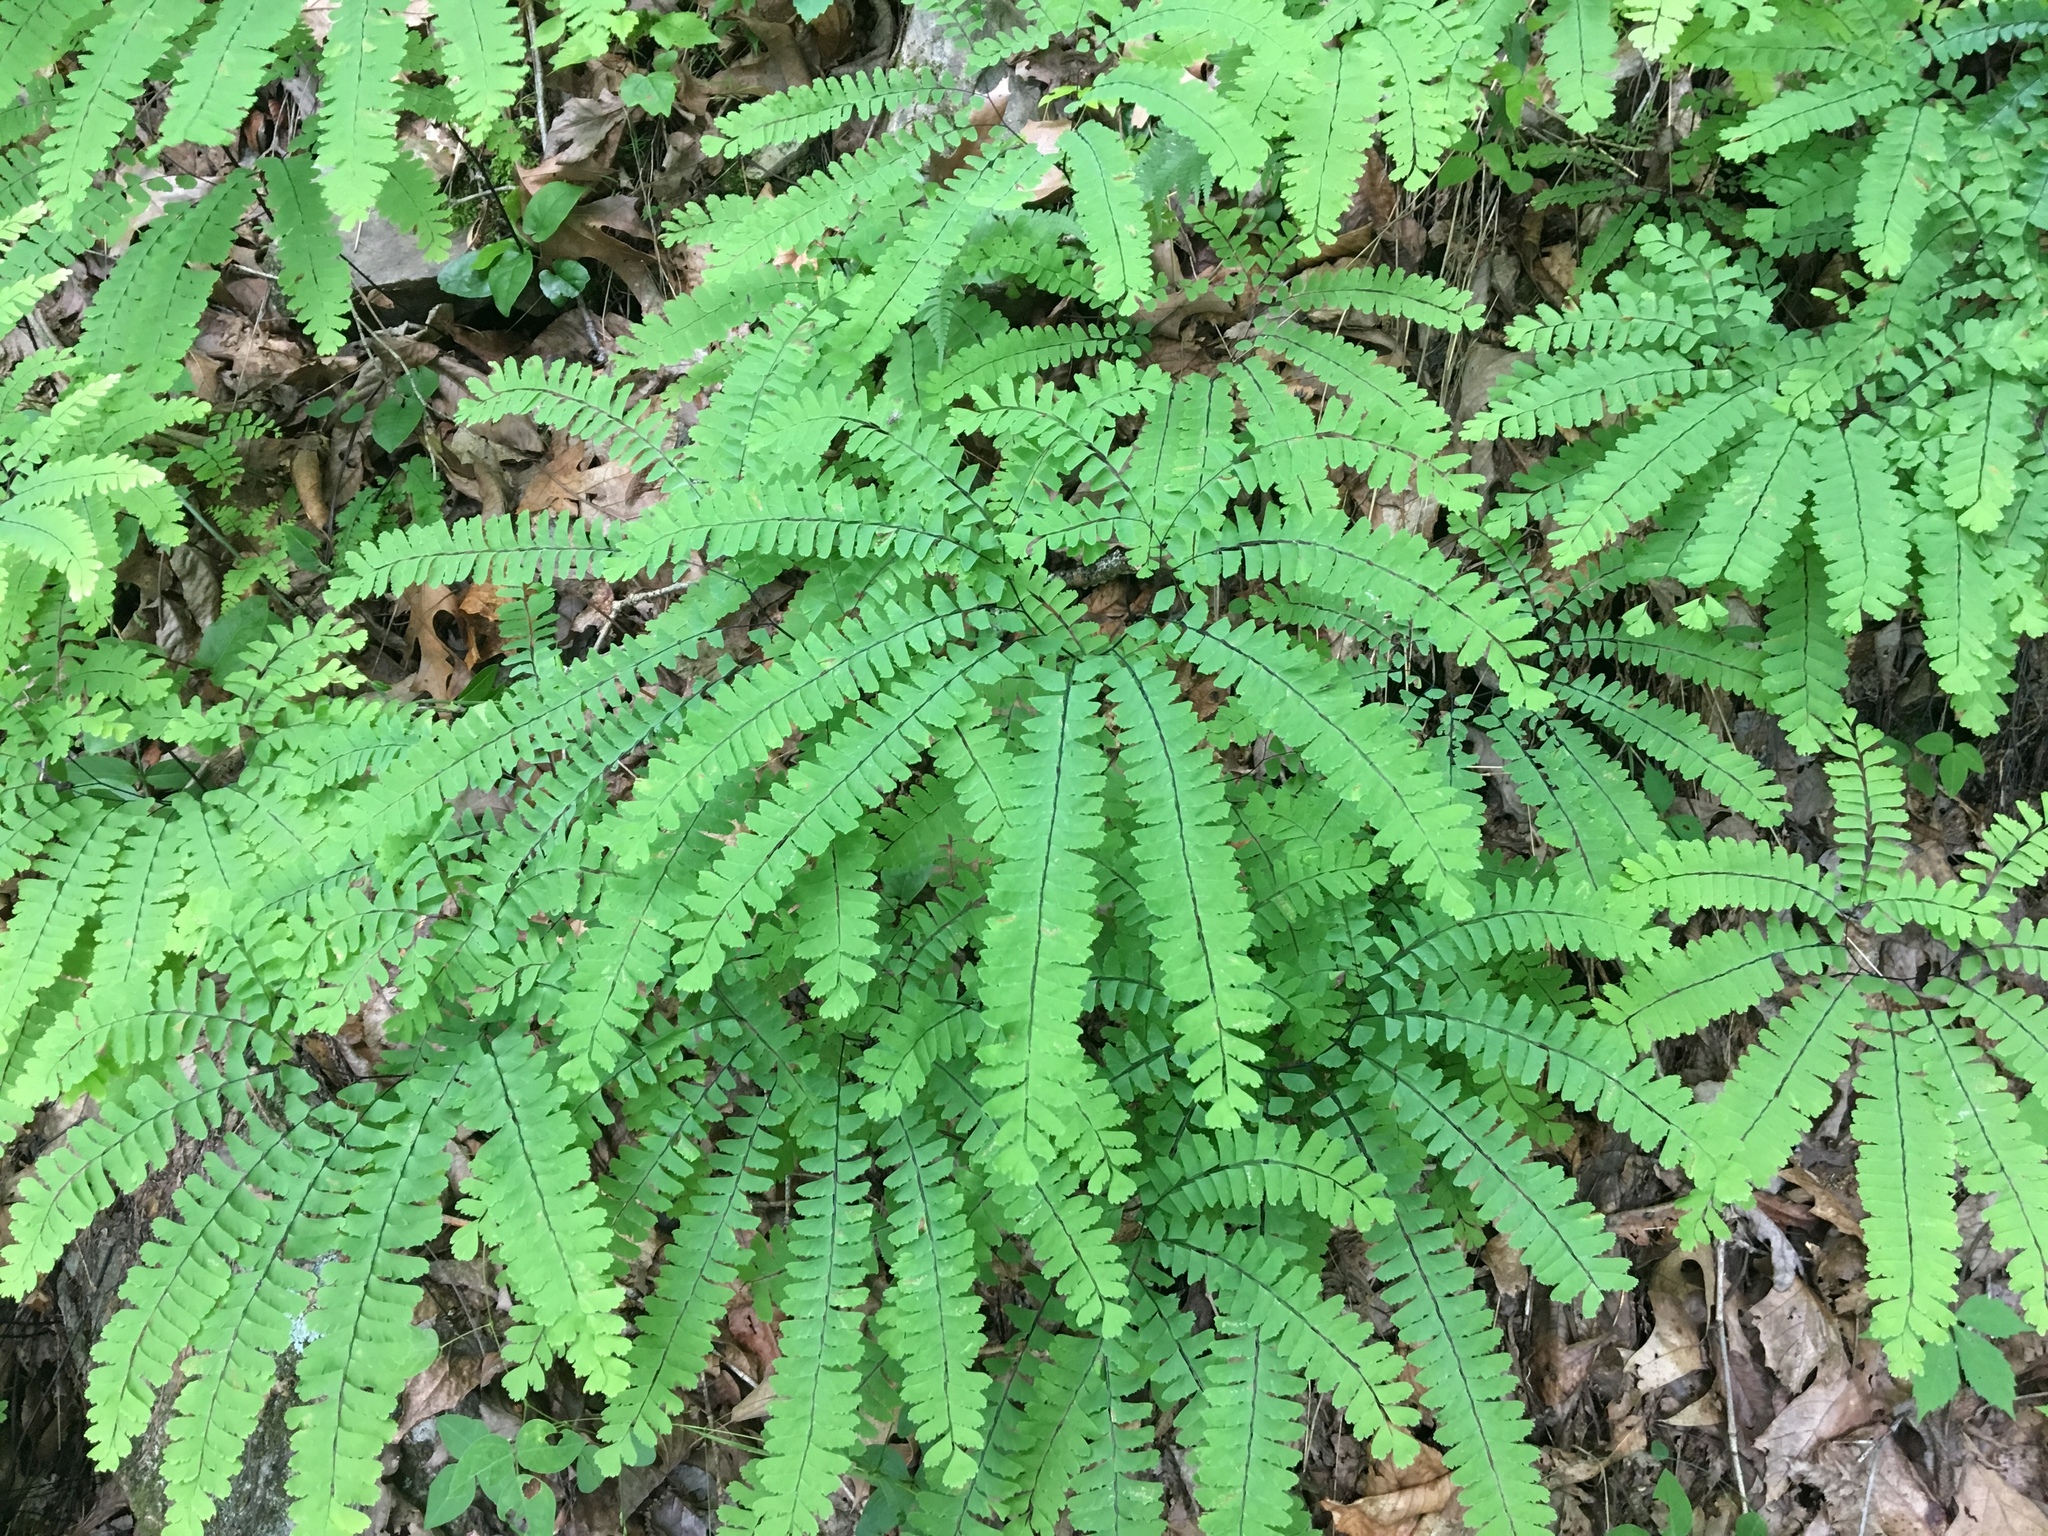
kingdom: Plantae
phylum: Tracheophyta
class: Polypodiopsida
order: Polypodiales
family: Pteridaceae
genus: Adiantum
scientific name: Adiantum pedatum
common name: Five-finger fern
